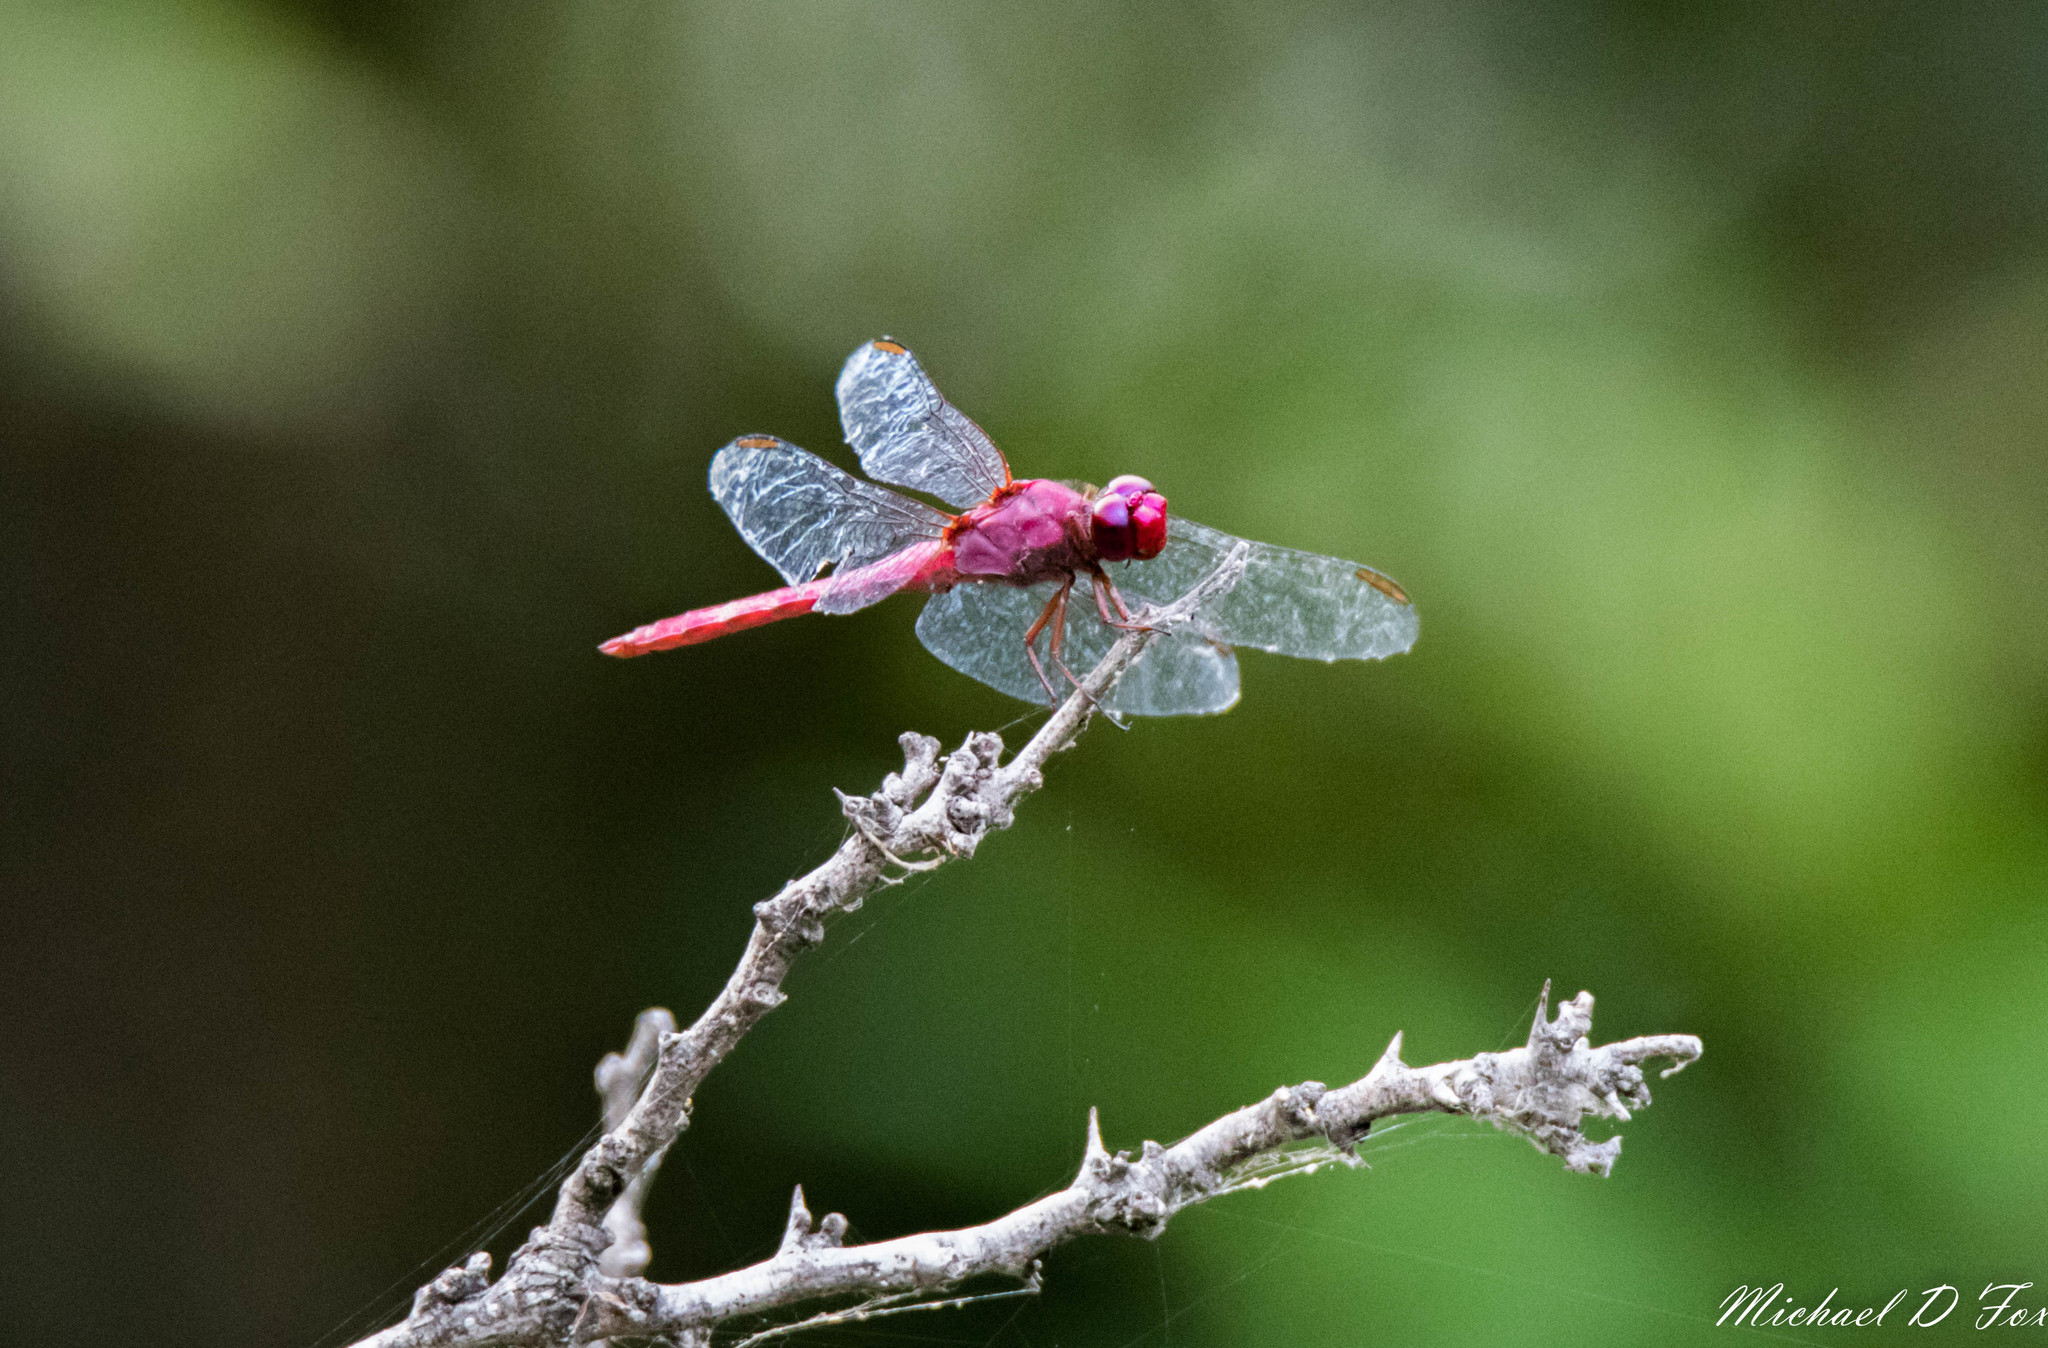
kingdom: Animalia
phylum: Arthropoda
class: Insecta
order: Odonata
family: Libellulidae
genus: Orthemis
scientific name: Orthemis discolor
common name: Carmine skimmer
